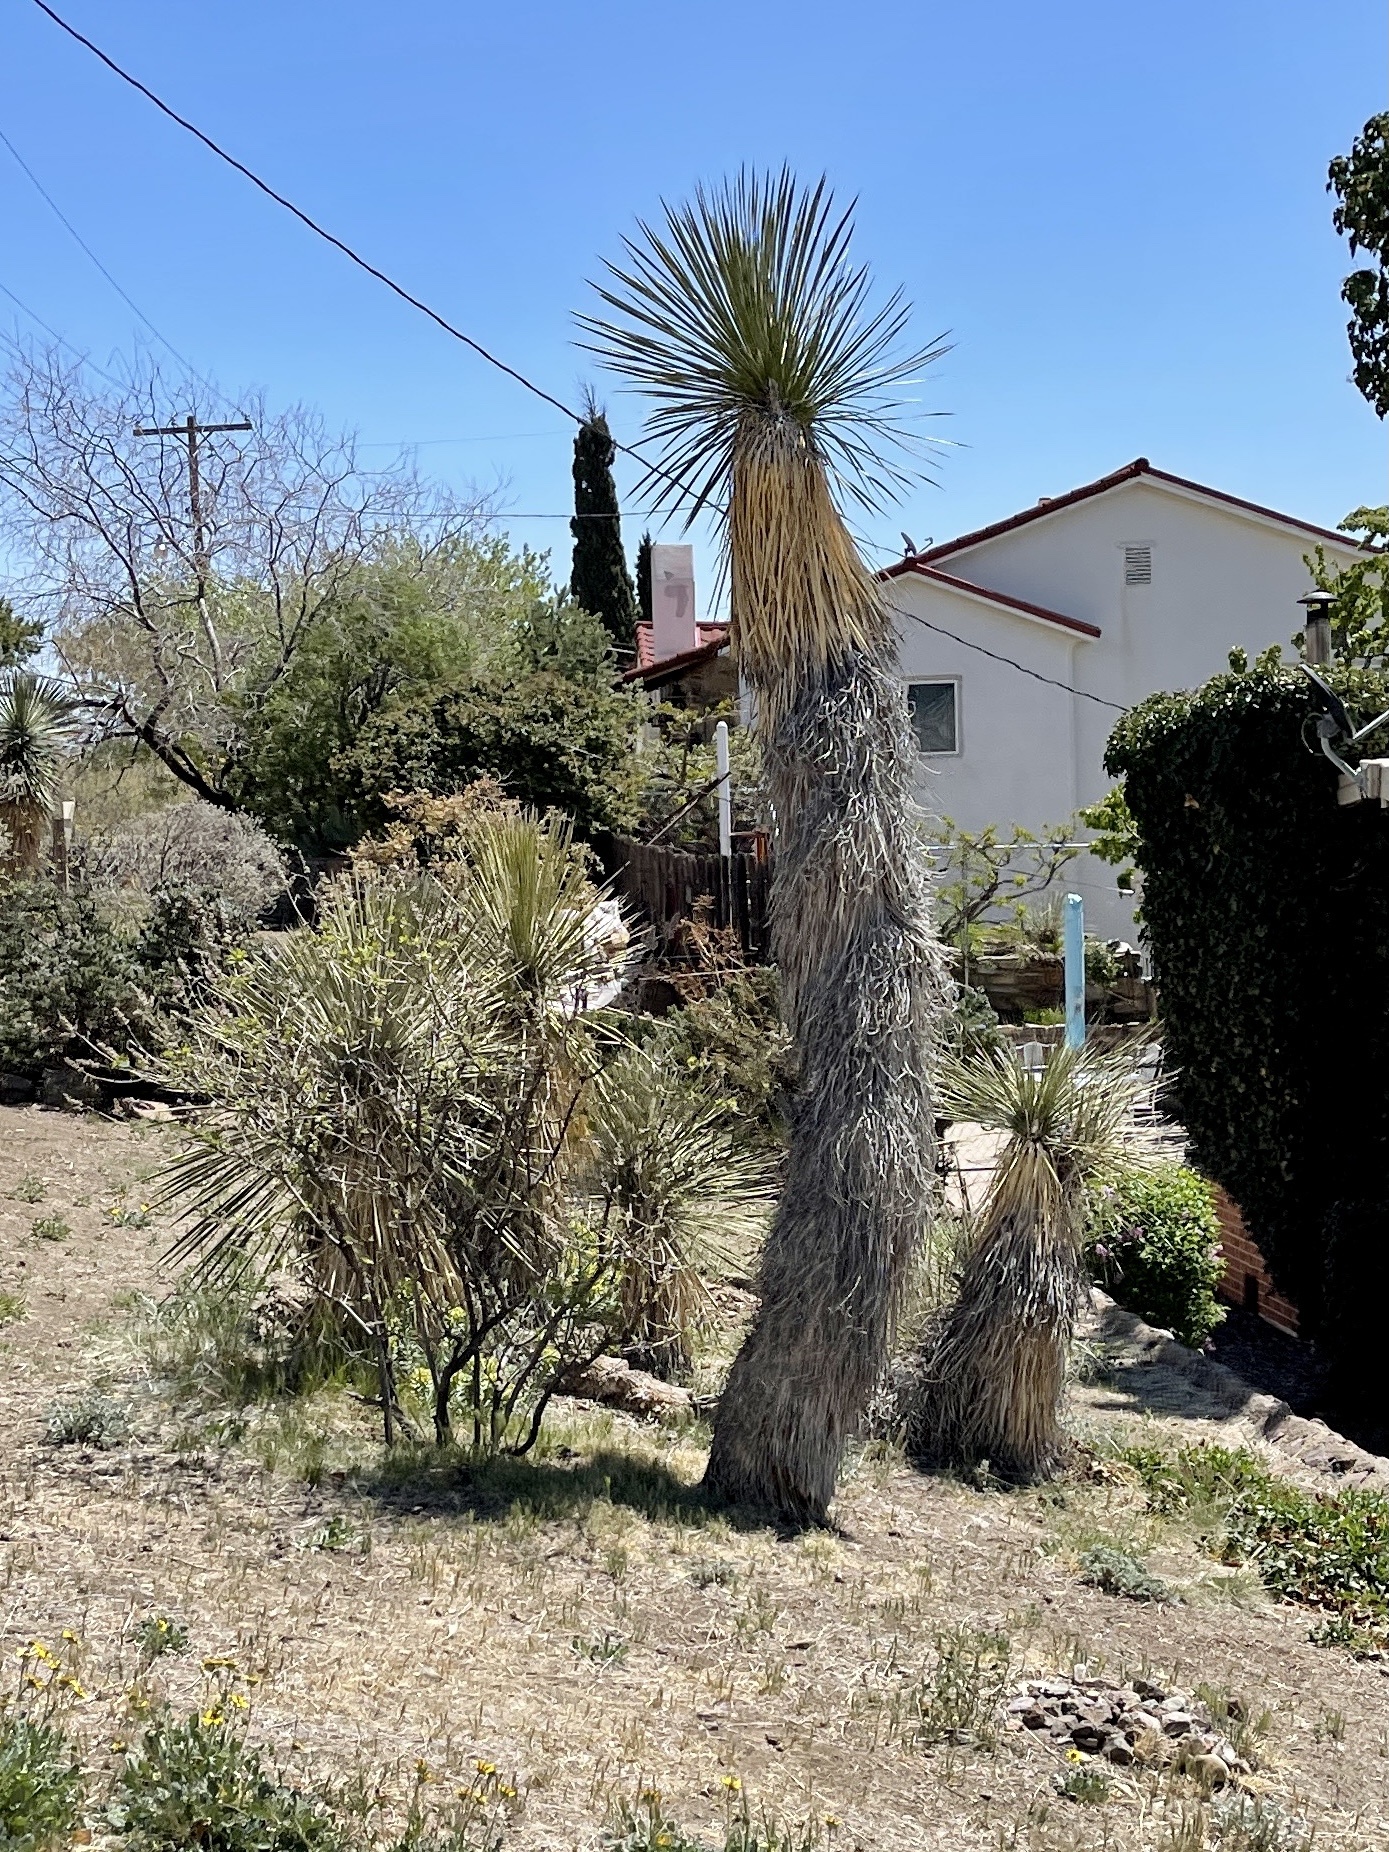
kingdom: Plantae
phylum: Tracheophyta
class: Liliopsida
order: Asparagales
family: Asparagaceae
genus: Yucca
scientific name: Yucca elata
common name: Palmella
